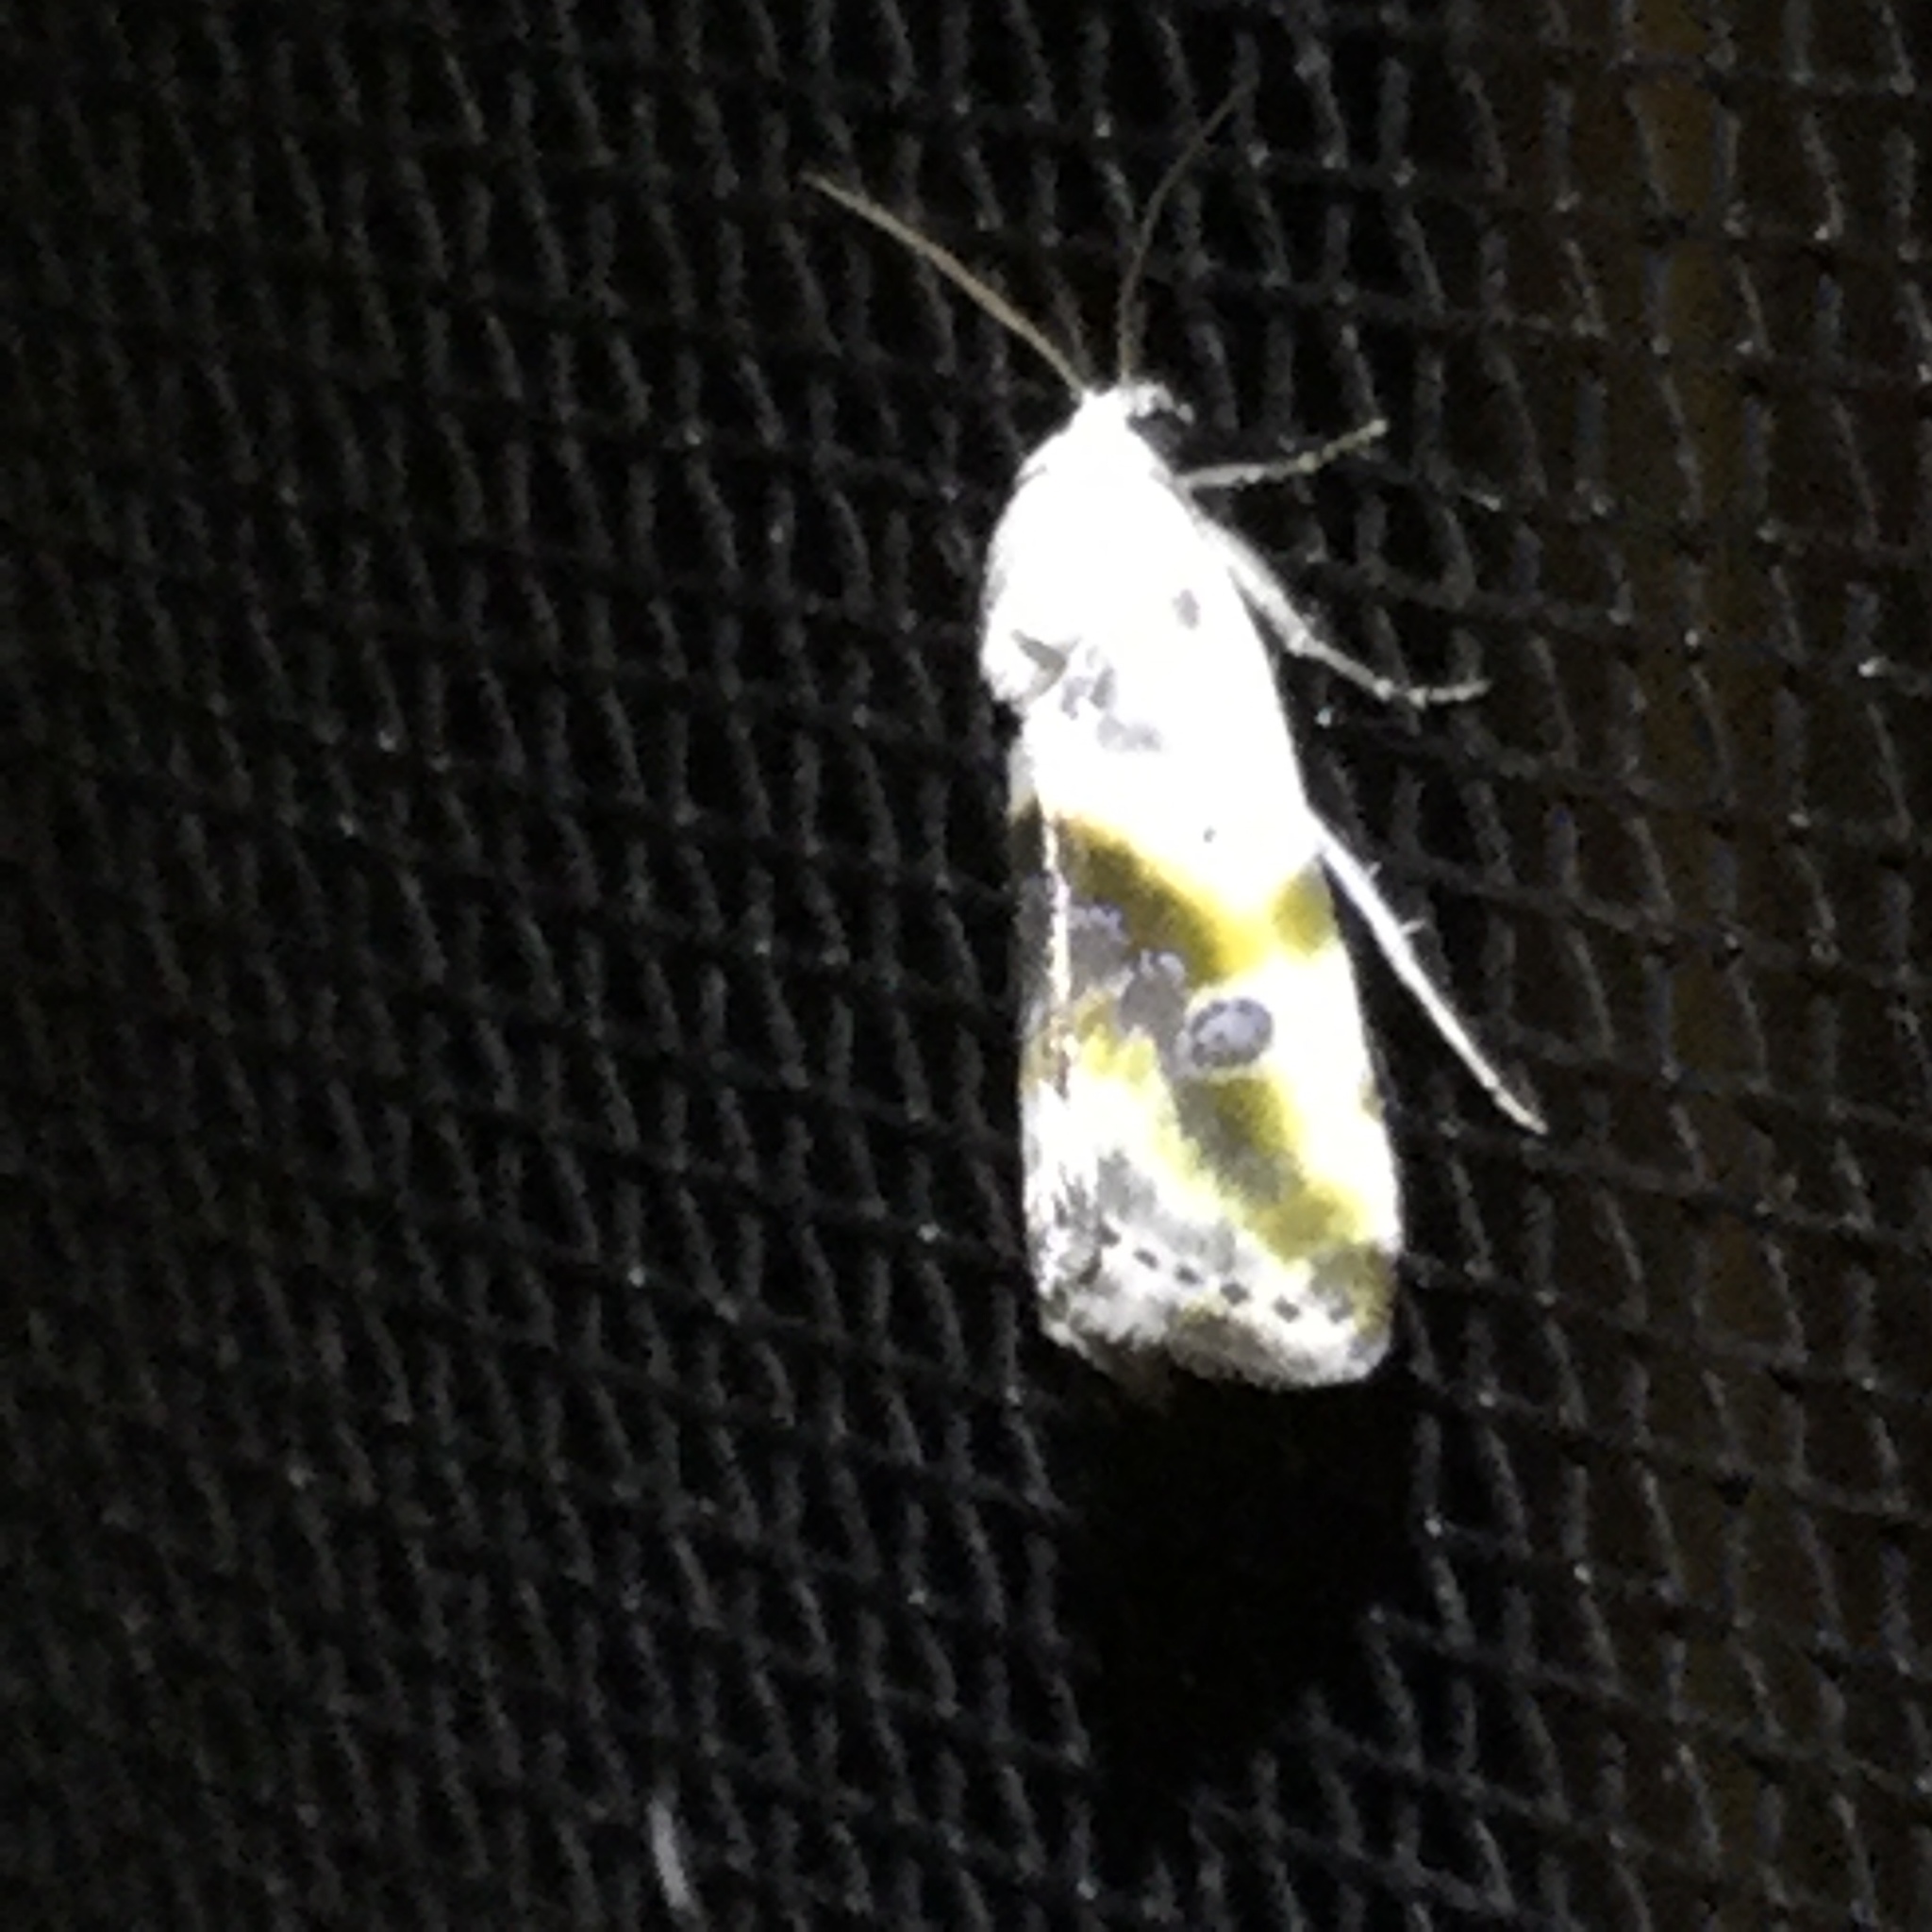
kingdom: Animalia
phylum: Arthropoda
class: Insecta
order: Lepidoptera
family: Noctuidae
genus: Acontia
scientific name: Acontia candefacta
